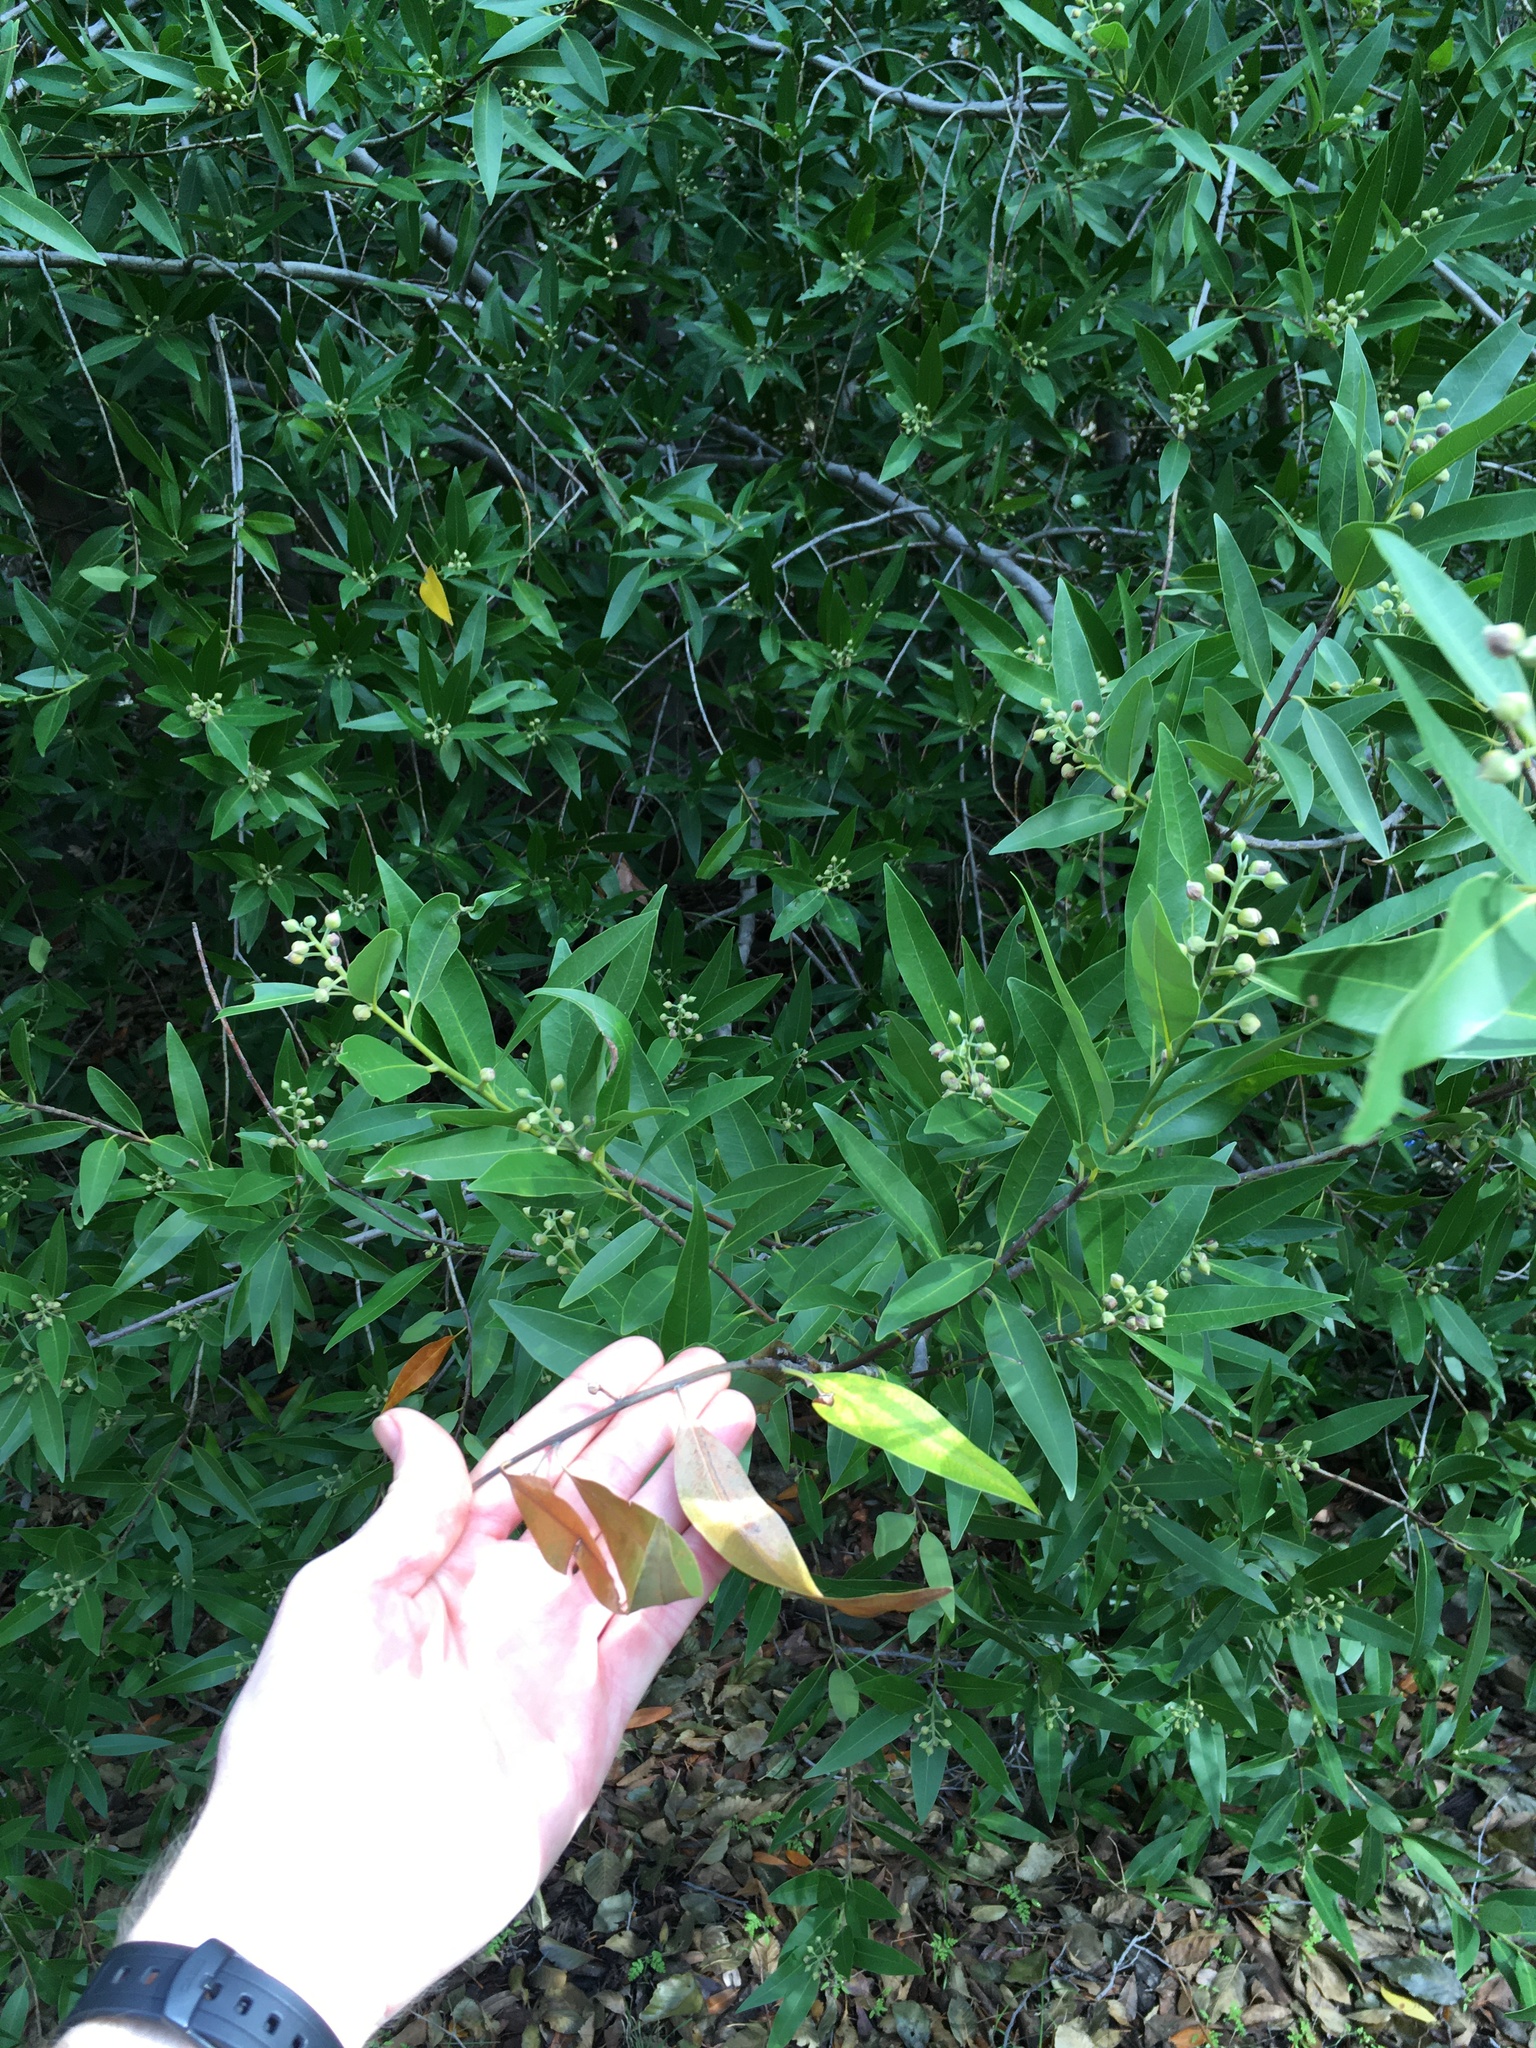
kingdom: Plantae
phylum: Tracheophyta
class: Magnoliopsida
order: Laurales
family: Lauraceae
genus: Umbellularia
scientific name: Umbellularia californica
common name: California bay
